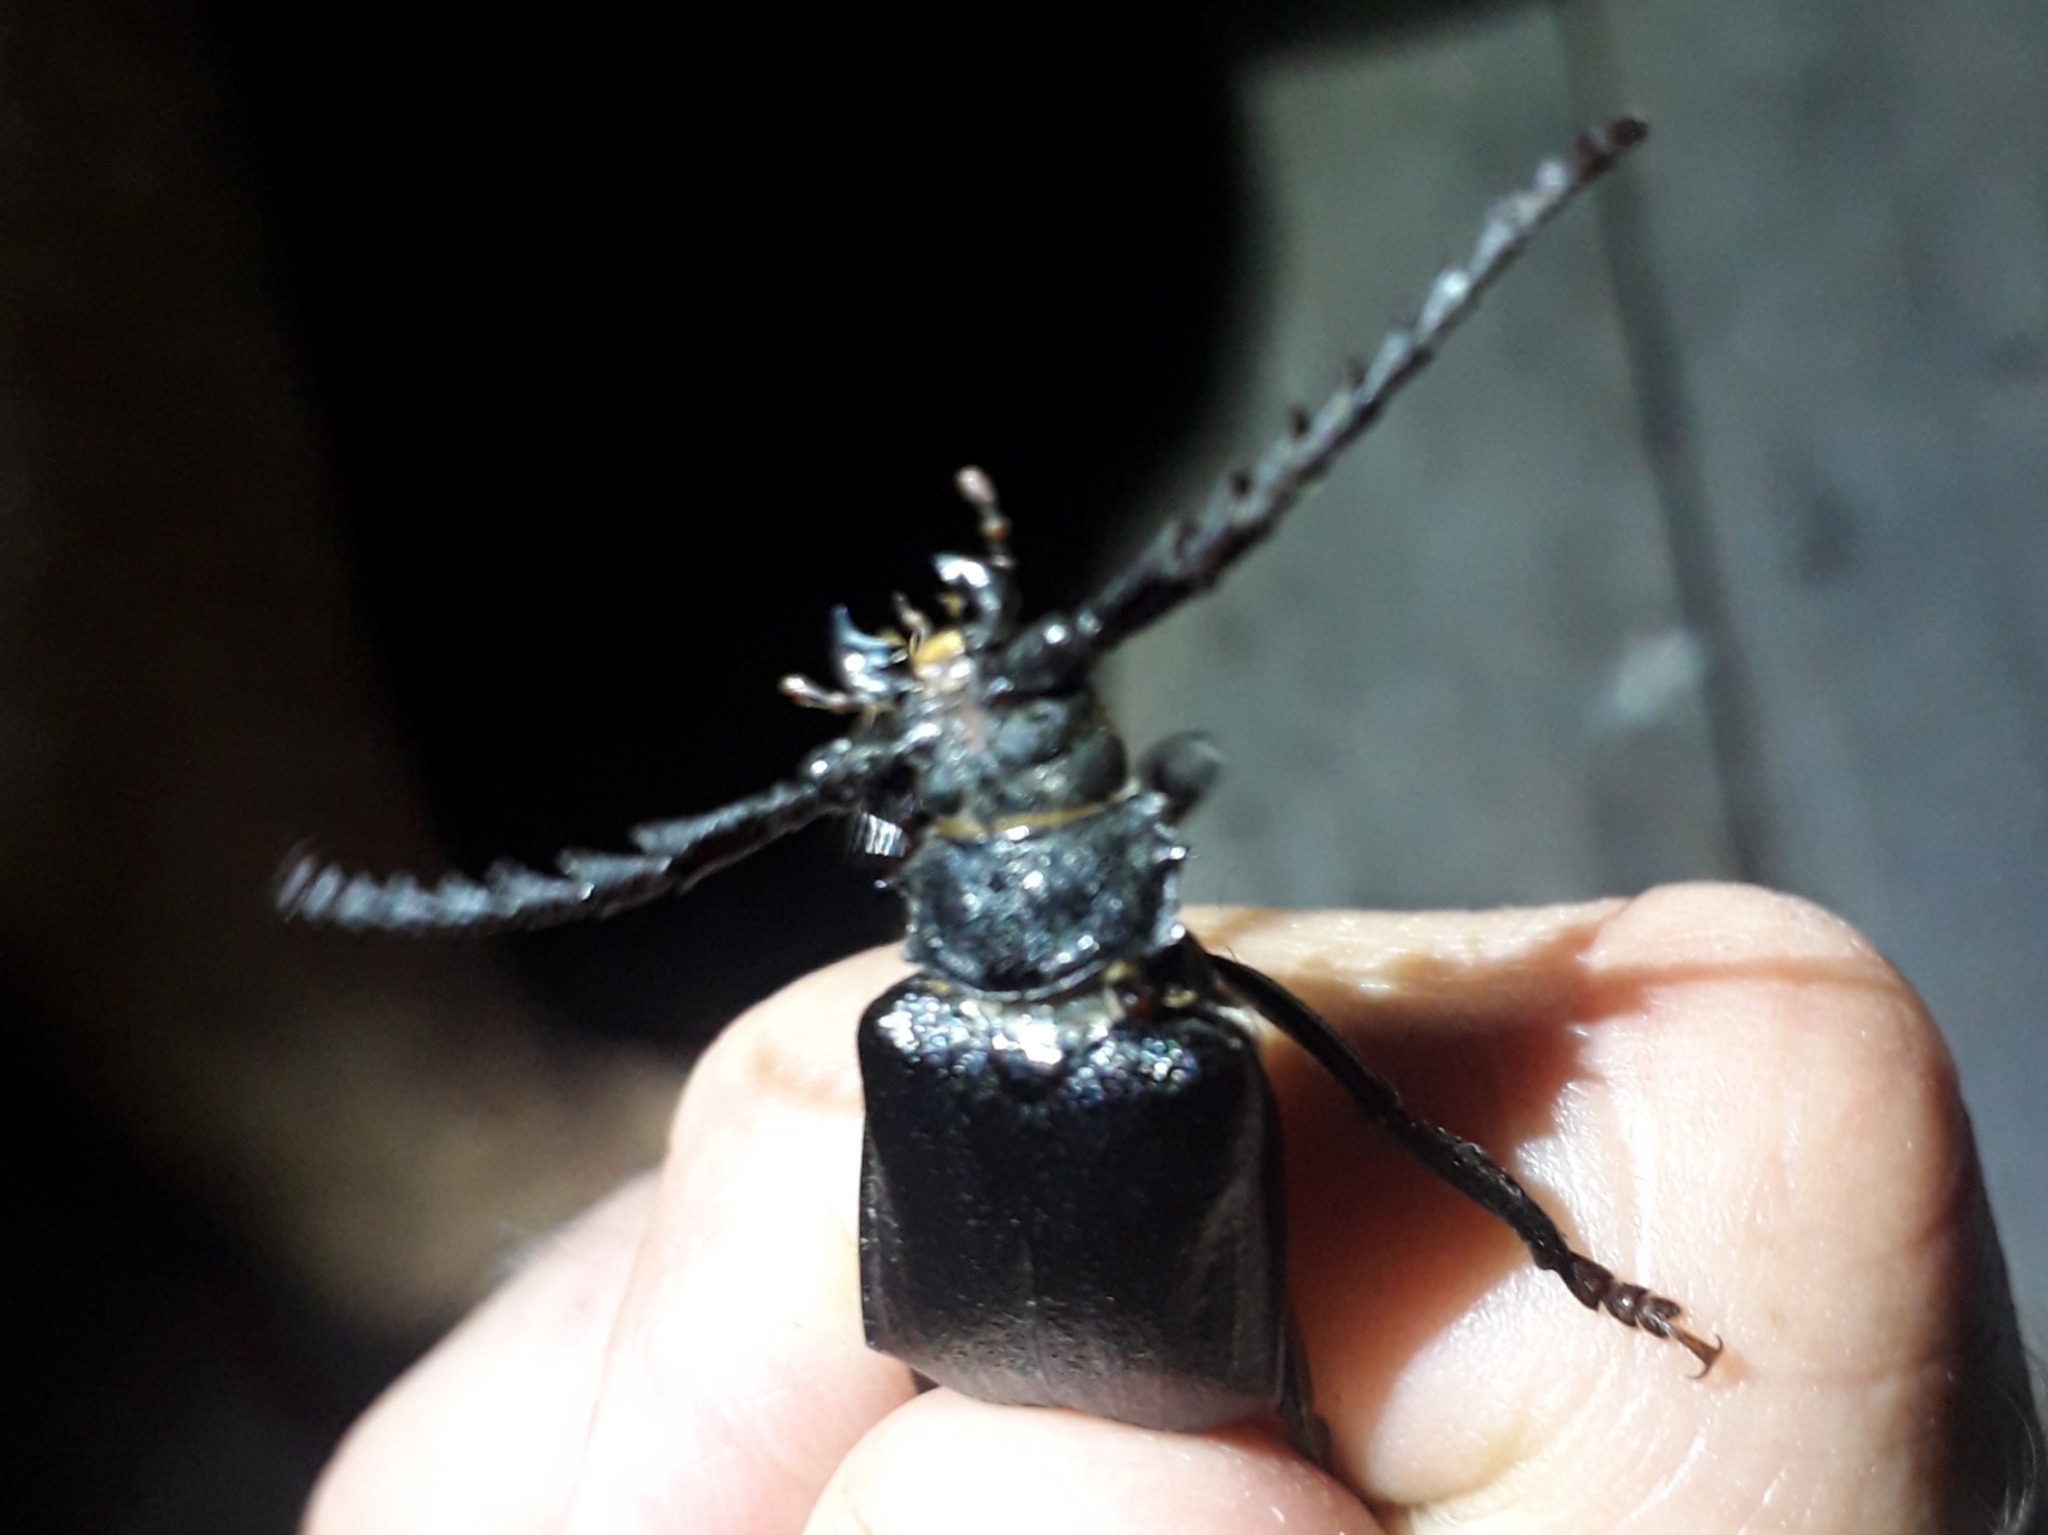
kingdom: Animalia
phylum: Arthropoda
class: Insecta
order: Coleoptera
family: Cerambycidae
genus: Prionus
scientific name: Prionus coriarius
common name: Tanner beetle
